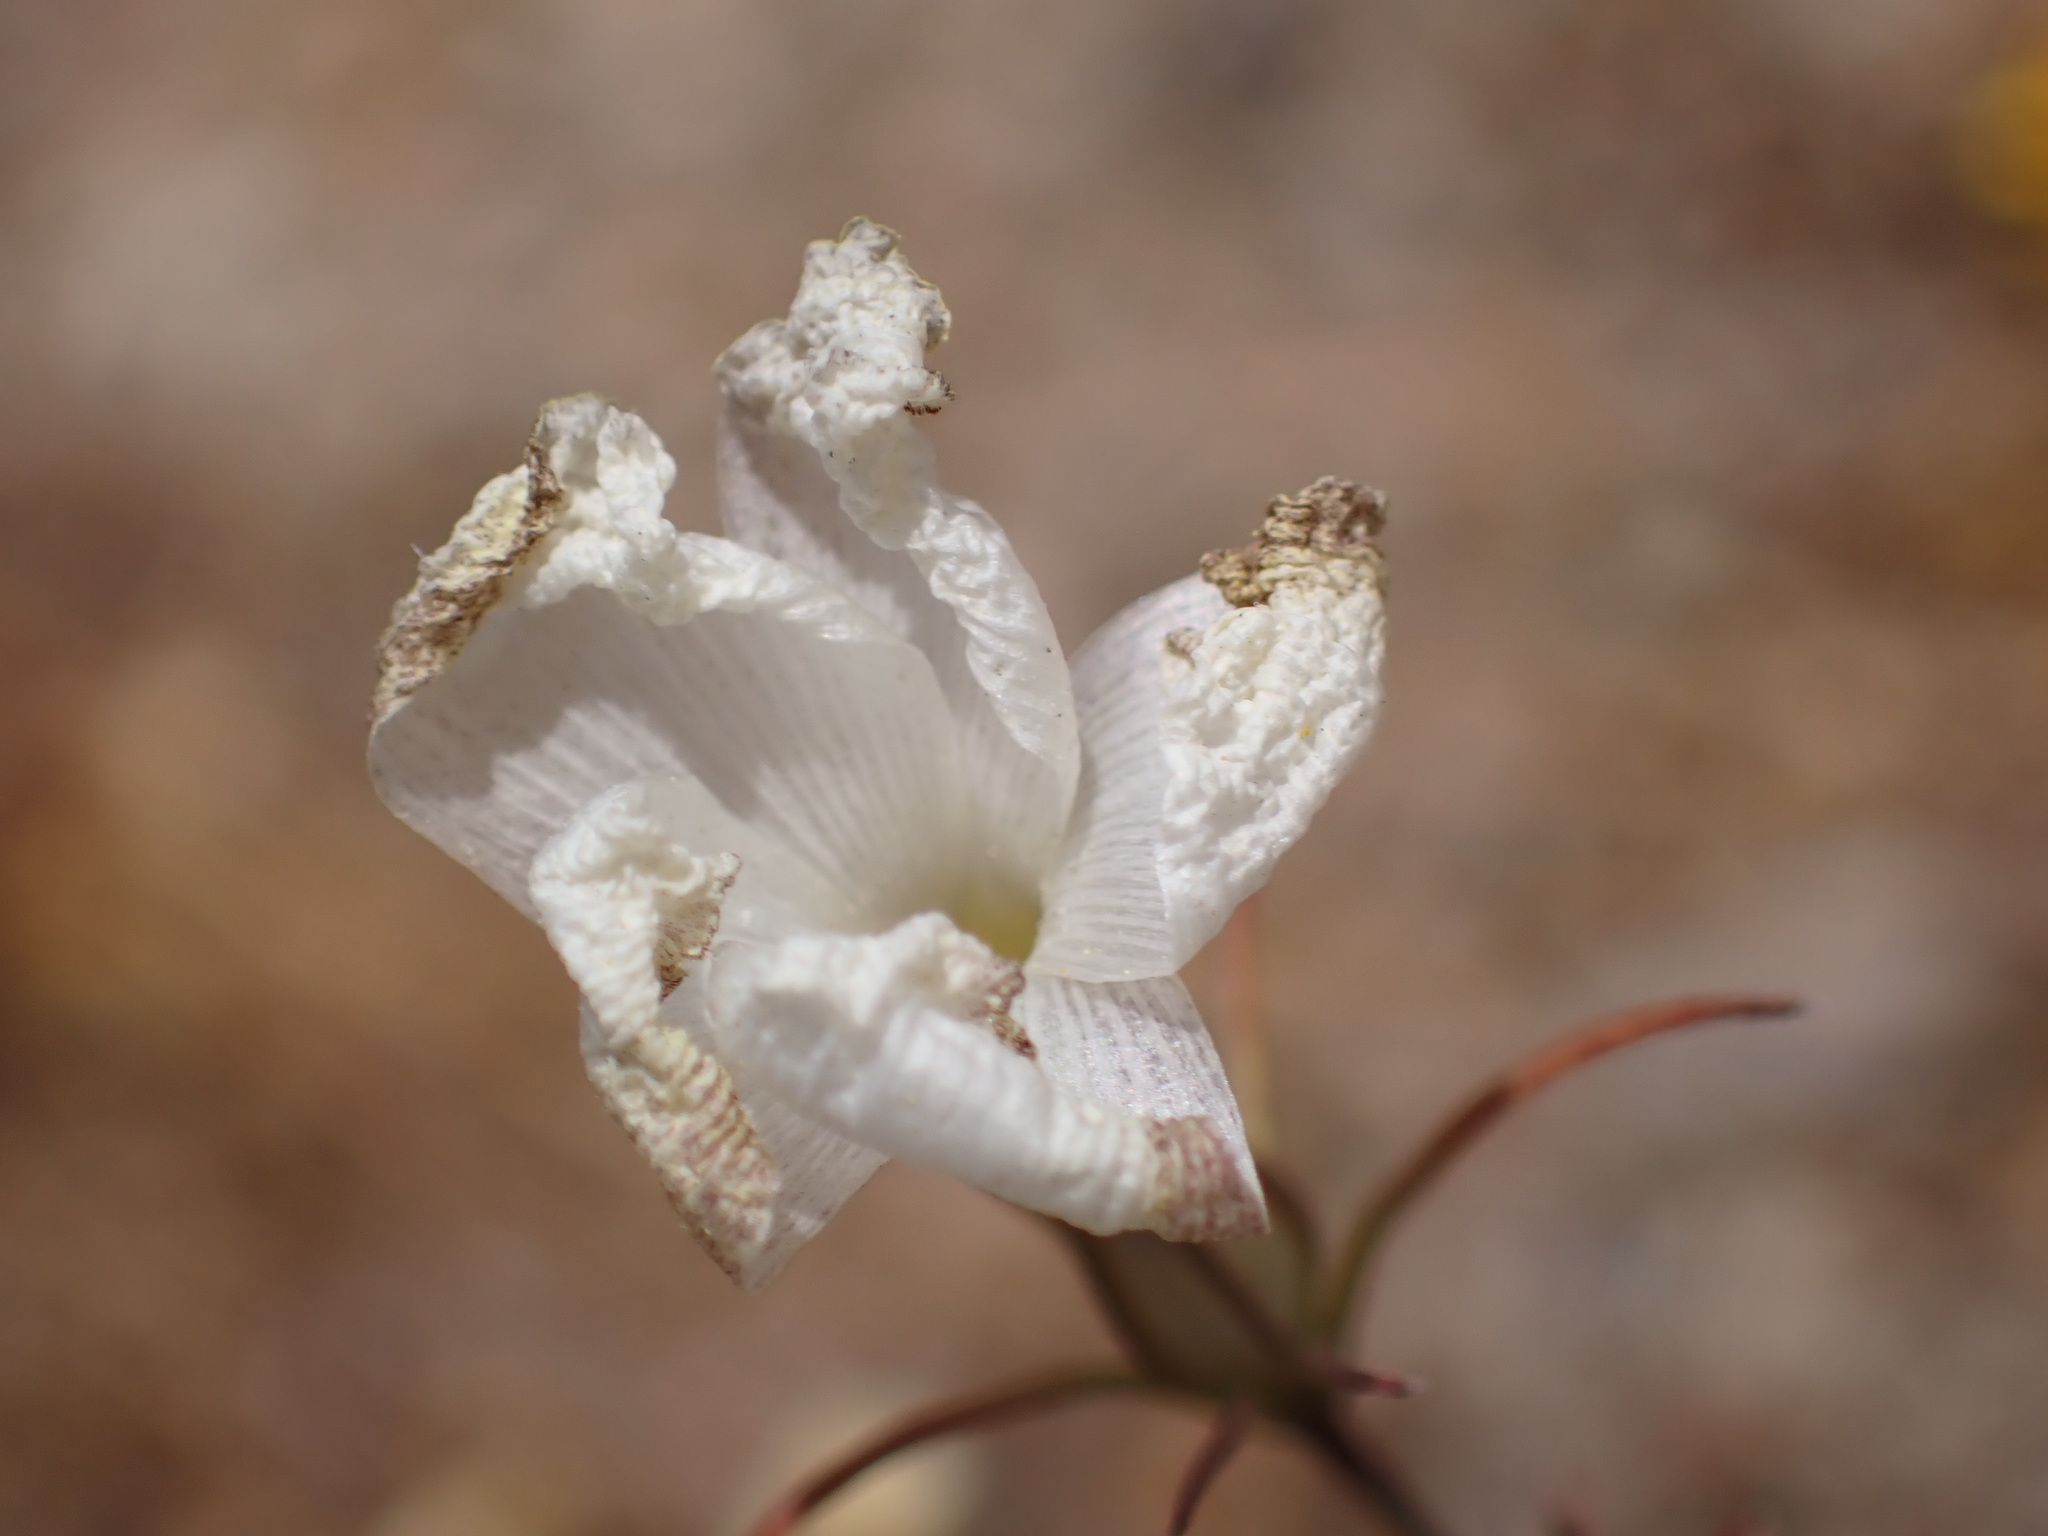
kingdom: Plantae
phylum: Tracheophyta
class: Magnoliopsida
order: Ericales
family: Polemoniaceae
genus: Linanthus
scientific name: Linanthus dichotomus
